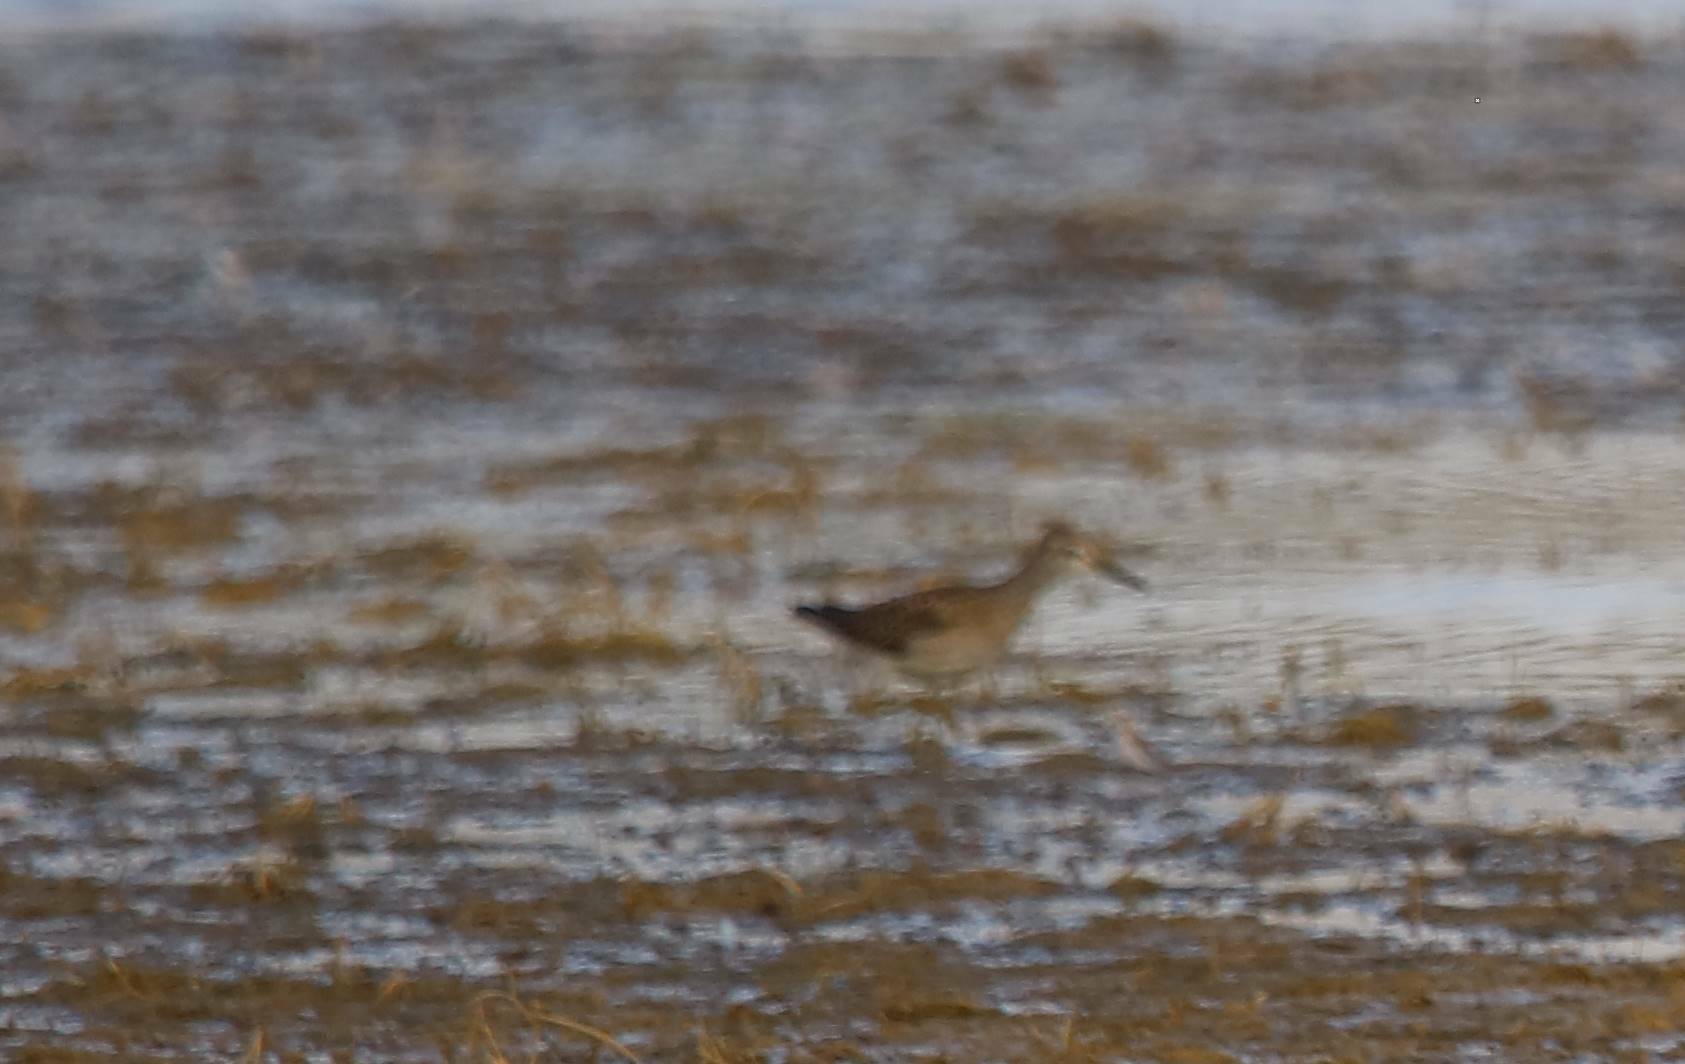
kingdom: Animalia
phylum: Chordata
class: Aves
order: Charadriiformes
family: Scolopacidae
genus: Tringa
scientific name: Tringa glareola
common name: Wood sandpiper
